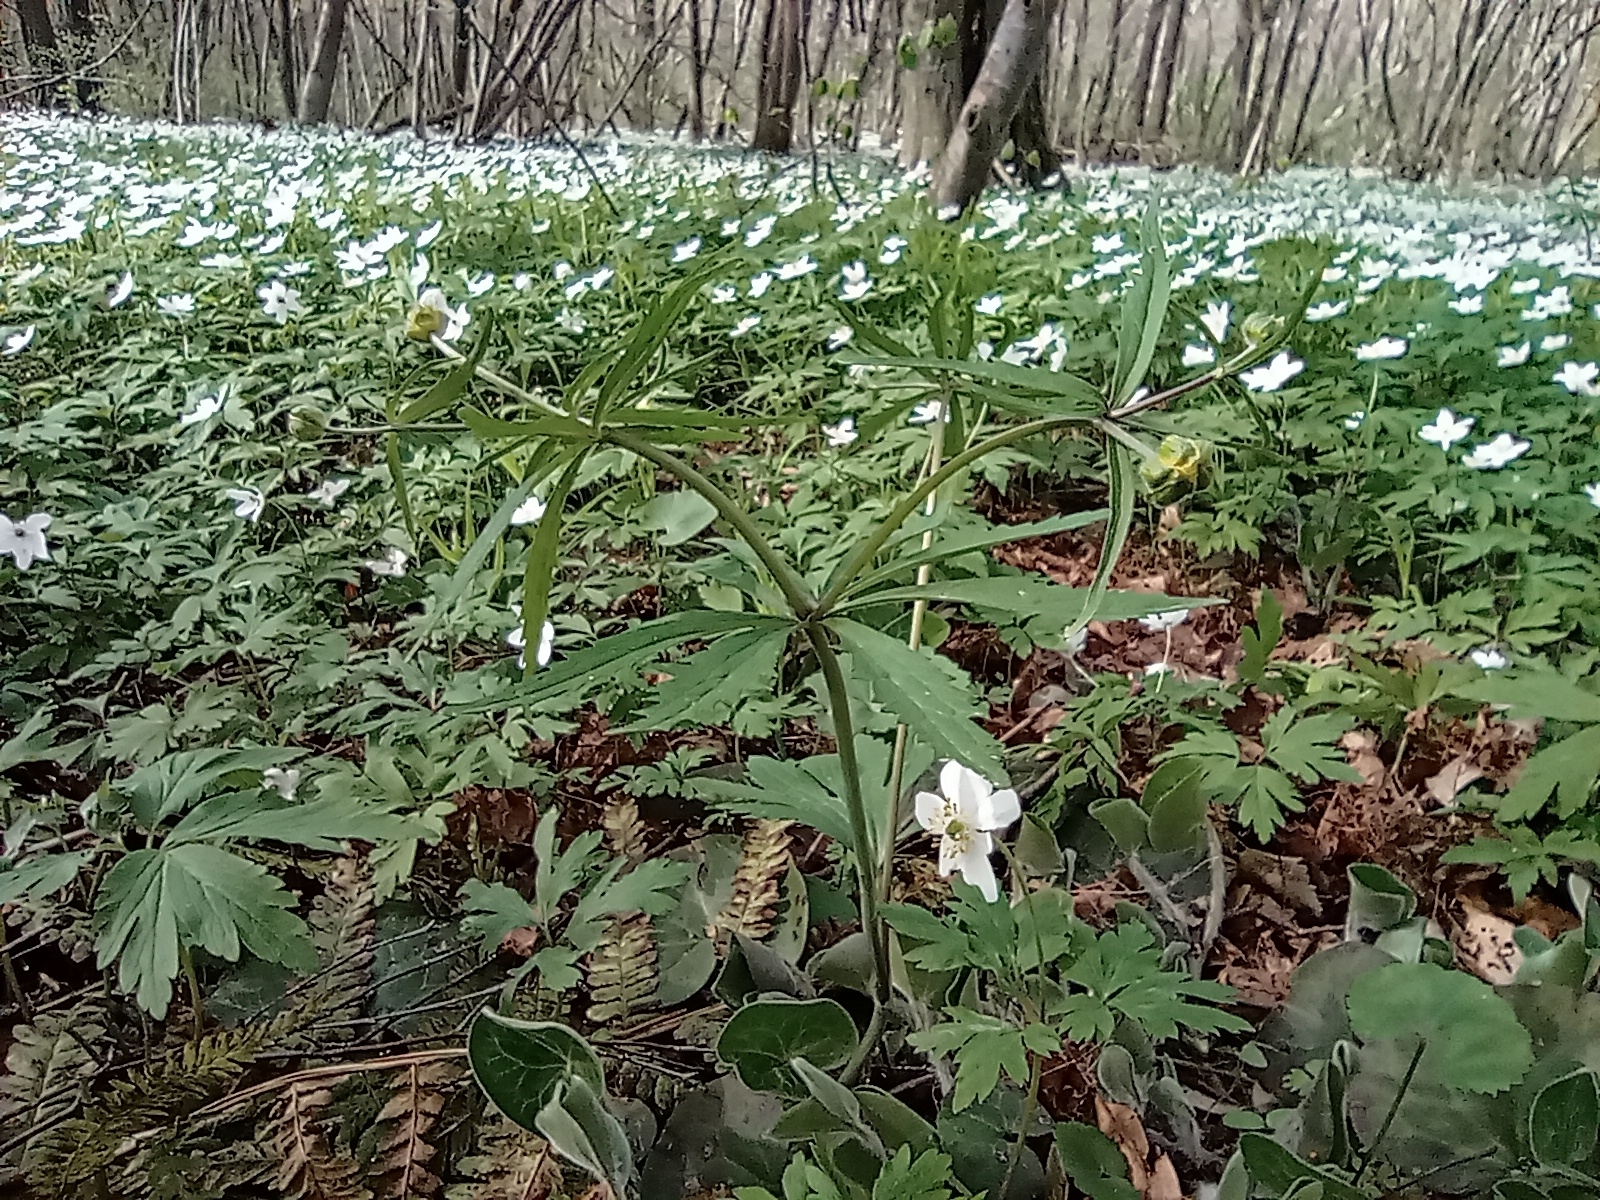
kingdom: Plantae
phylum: Tracheophyta
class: Magnoliopsida
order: Ranunculales
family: Ranunculaceae
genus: Ranunculus
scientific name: Ranunculus cassubicus
